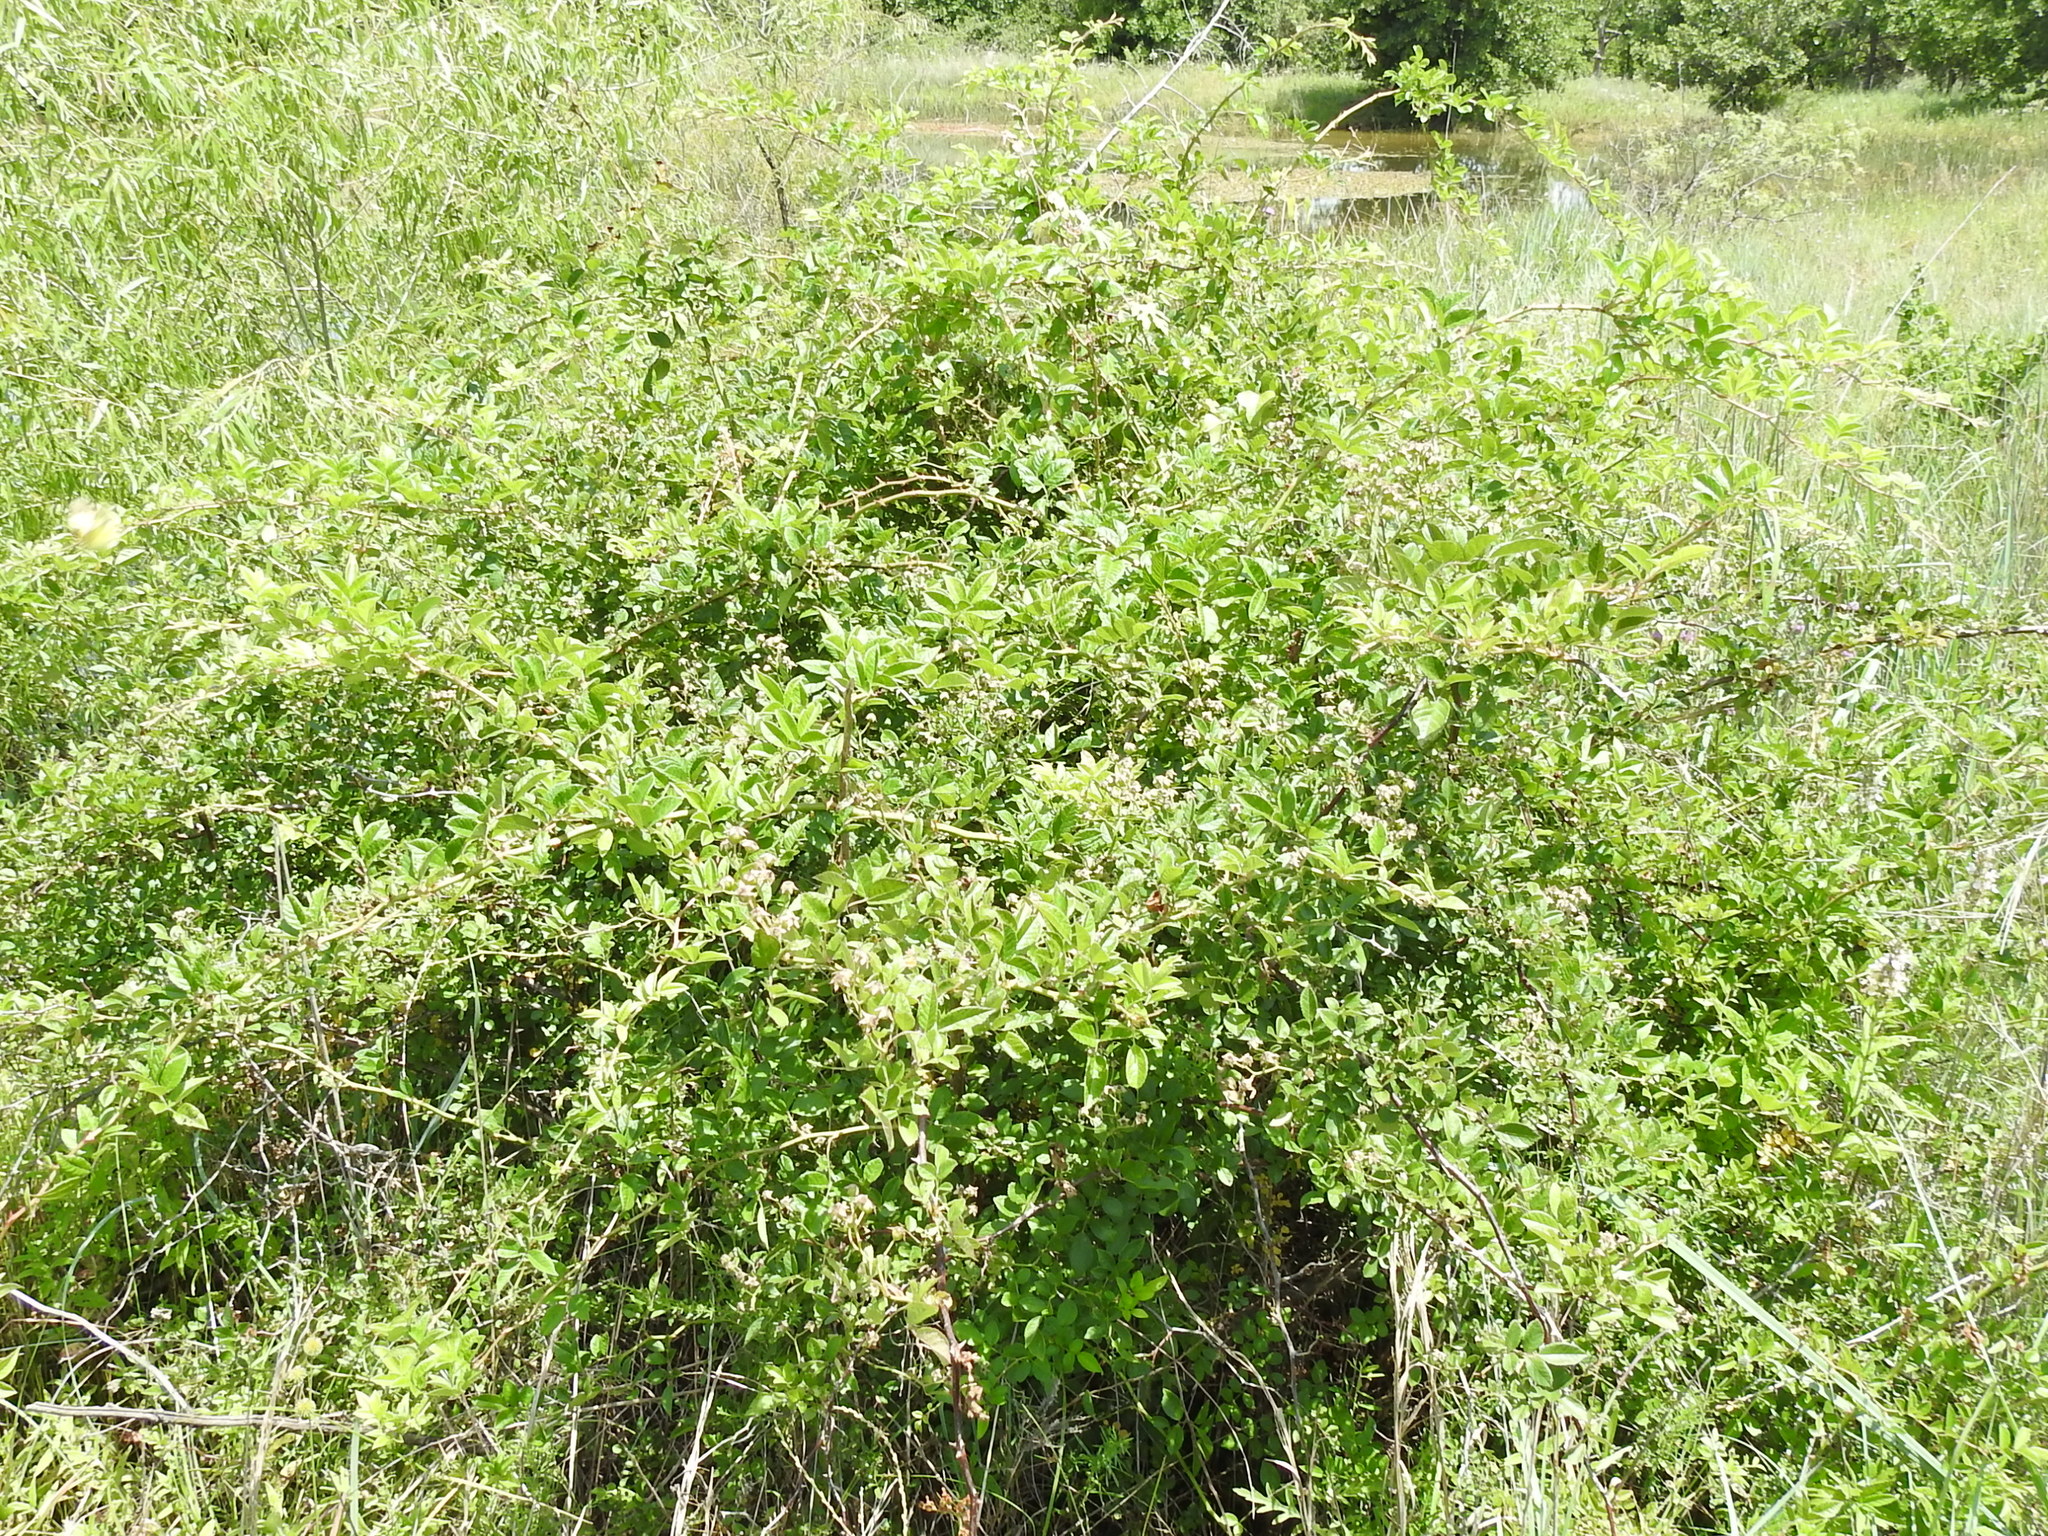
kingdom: Plantae
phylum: Tracheophyta
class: Magnoliopsida
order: Rosales
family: Rosaceae
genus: Rosa
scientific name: Rosa multiflora
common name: Multiflora rose
